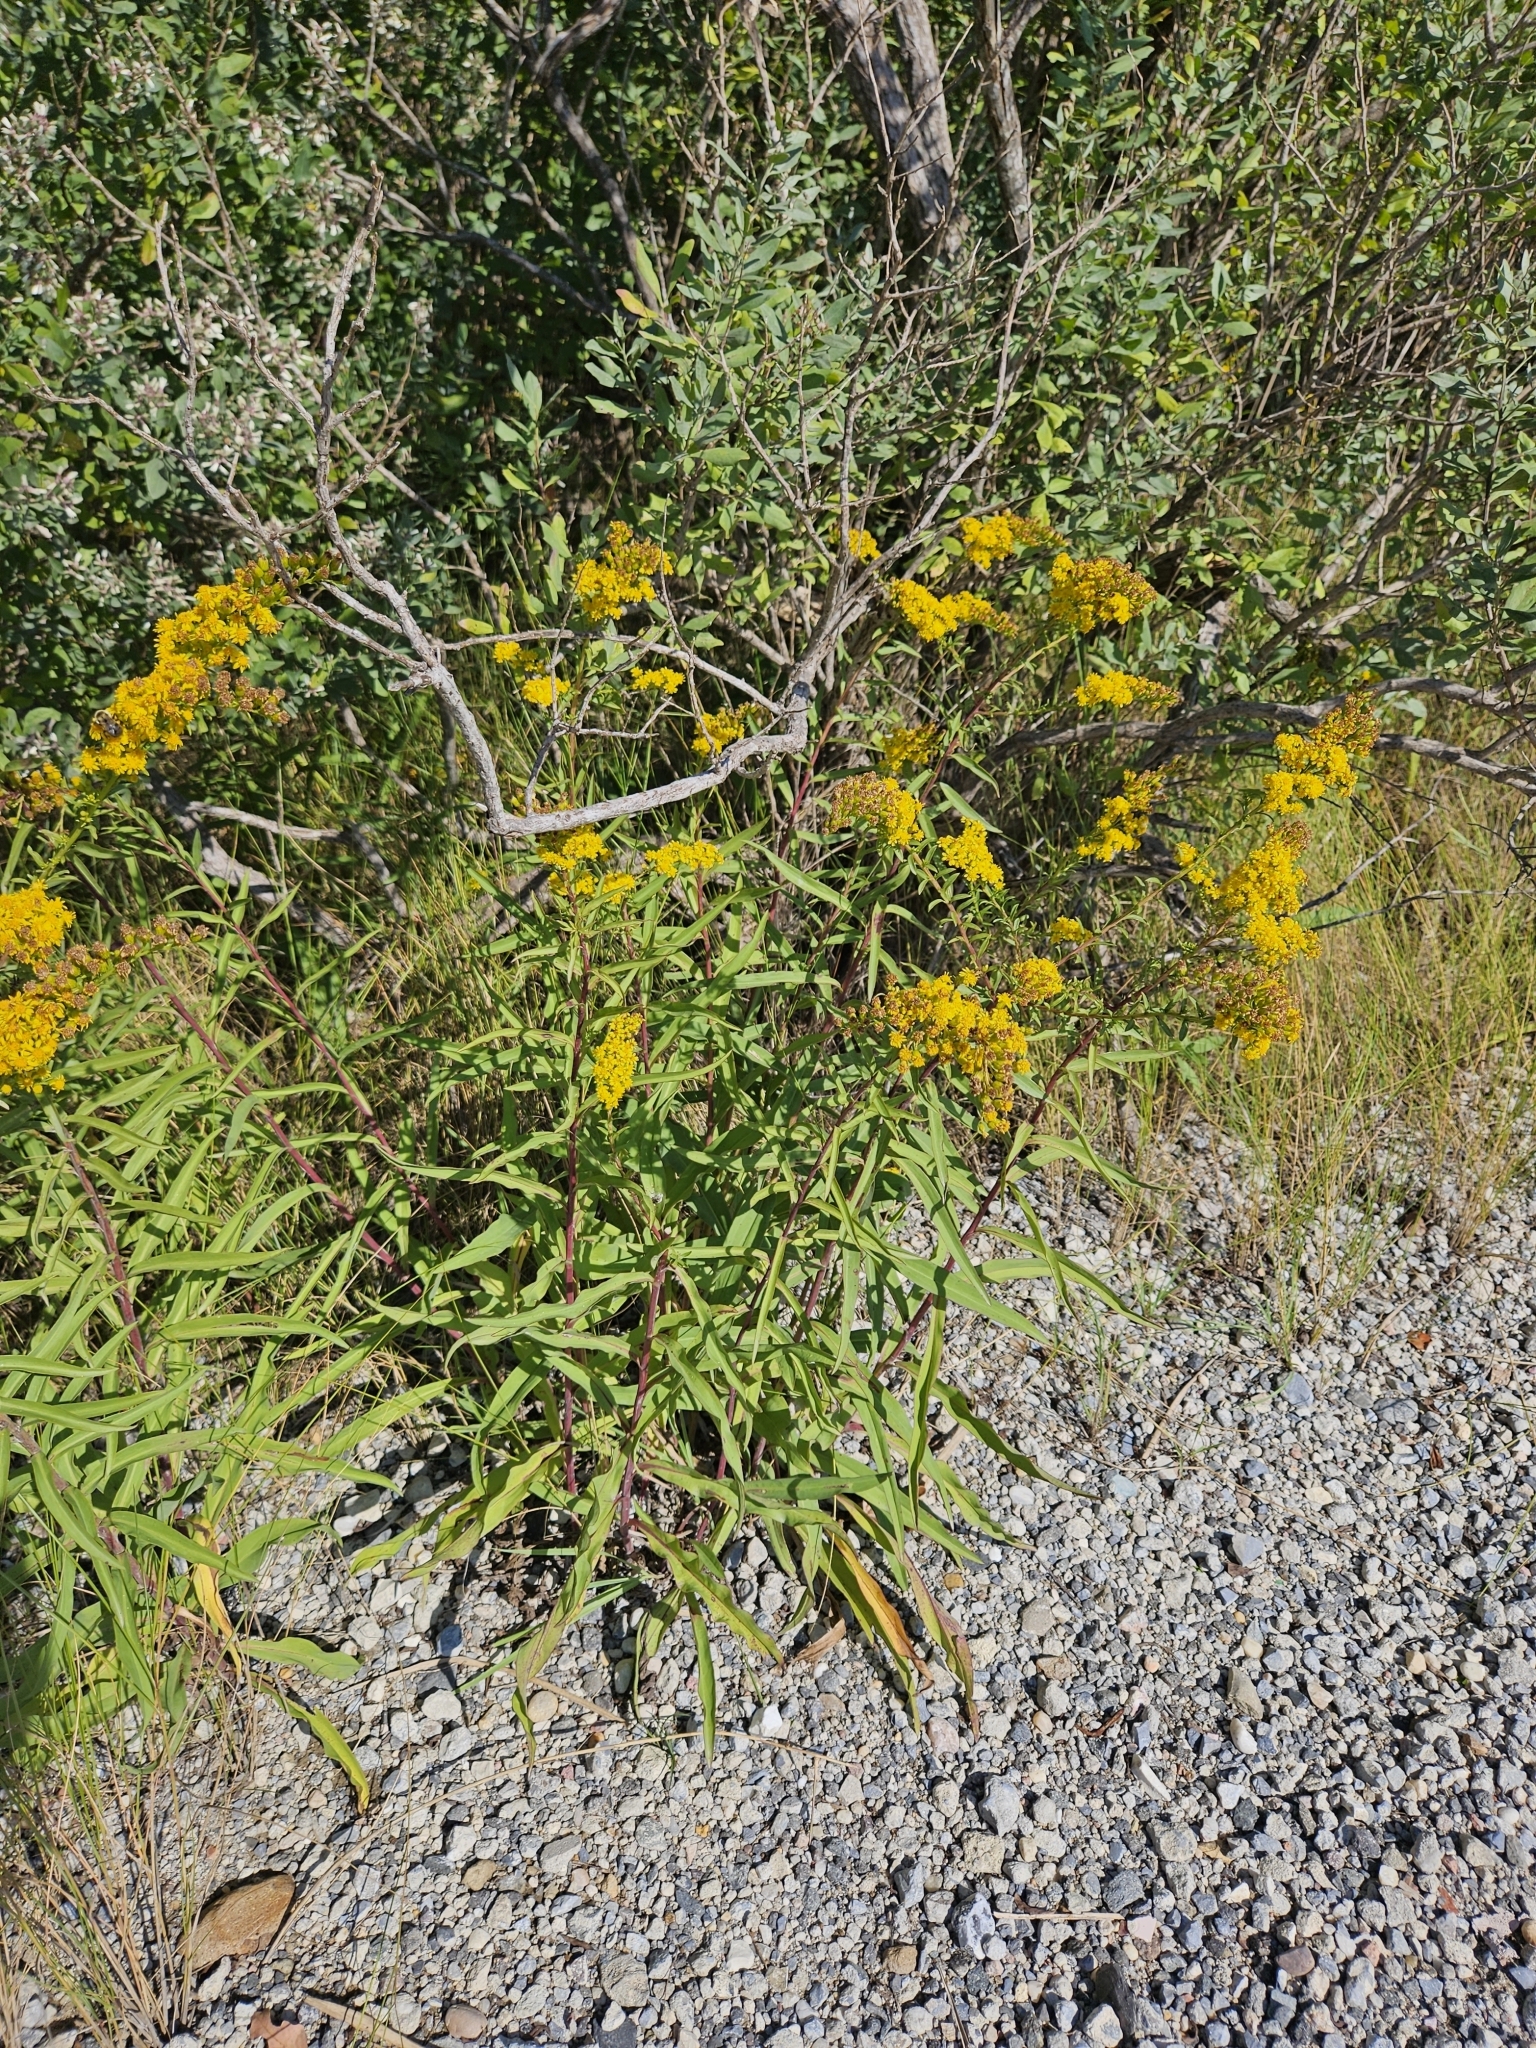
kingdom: Plantae
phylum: Tracheophyta
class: Magnoliopsida
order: Asterales
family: Asteraceae
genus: Solidago
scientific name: Solidago sempervirens
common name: Salt-marsh goldenrod
